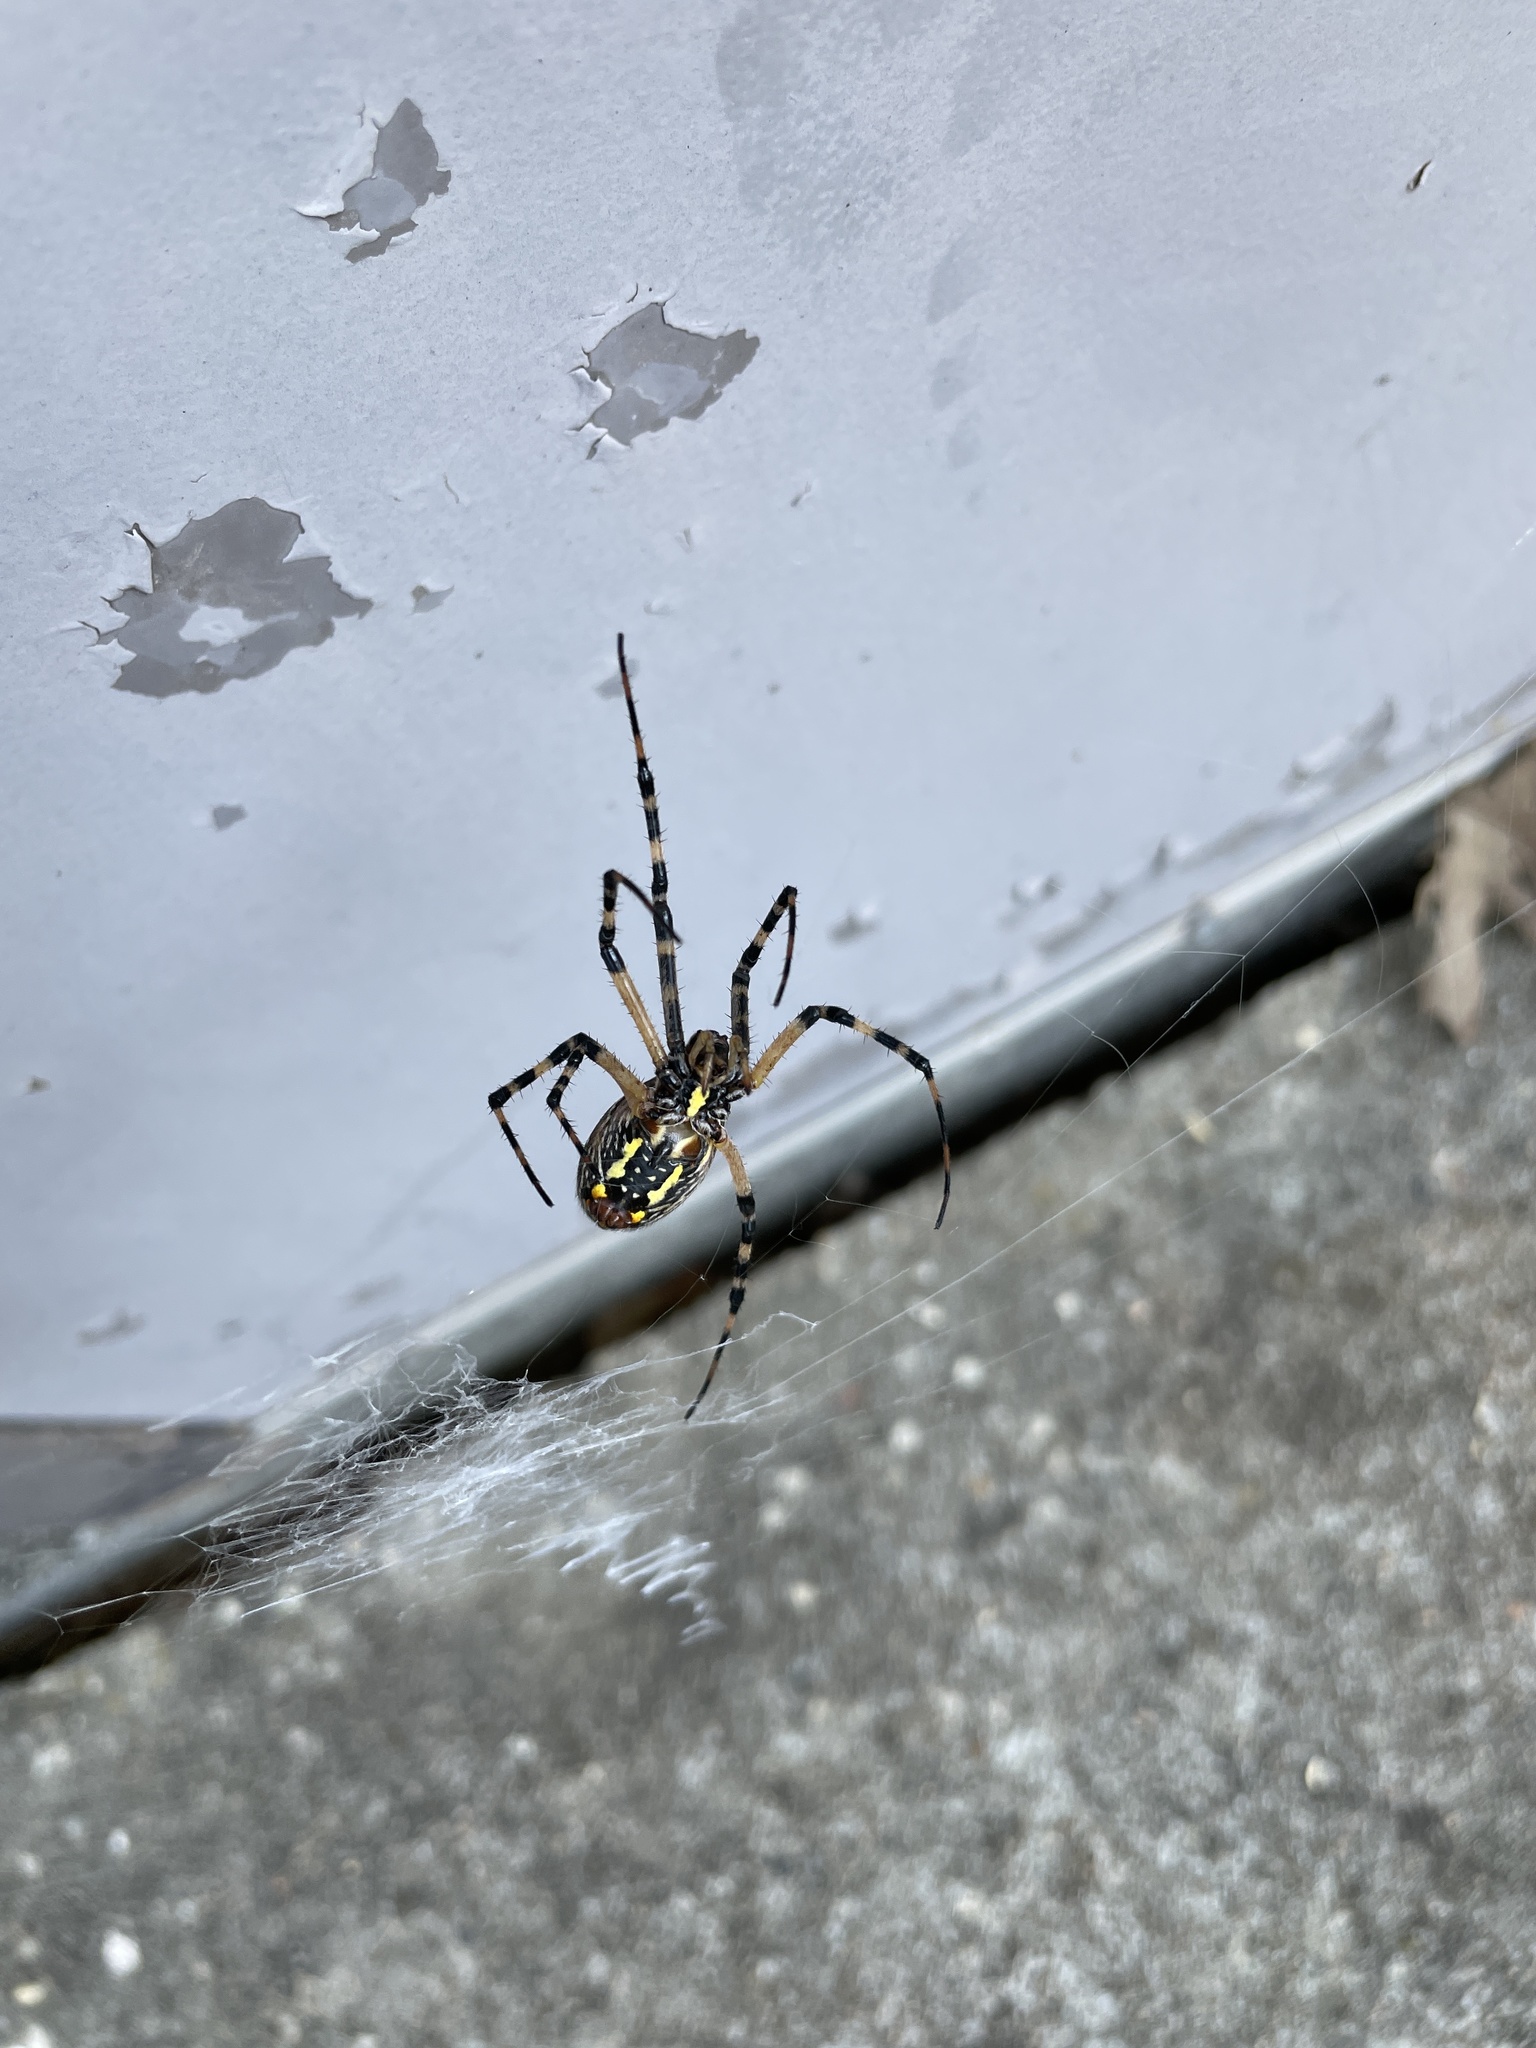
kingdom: Animalia
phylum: Arthropoda
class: Arachnida
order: Araneae
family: Araneidae
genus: Argiope
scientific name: Argiope aurantia
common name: Orb weavers
